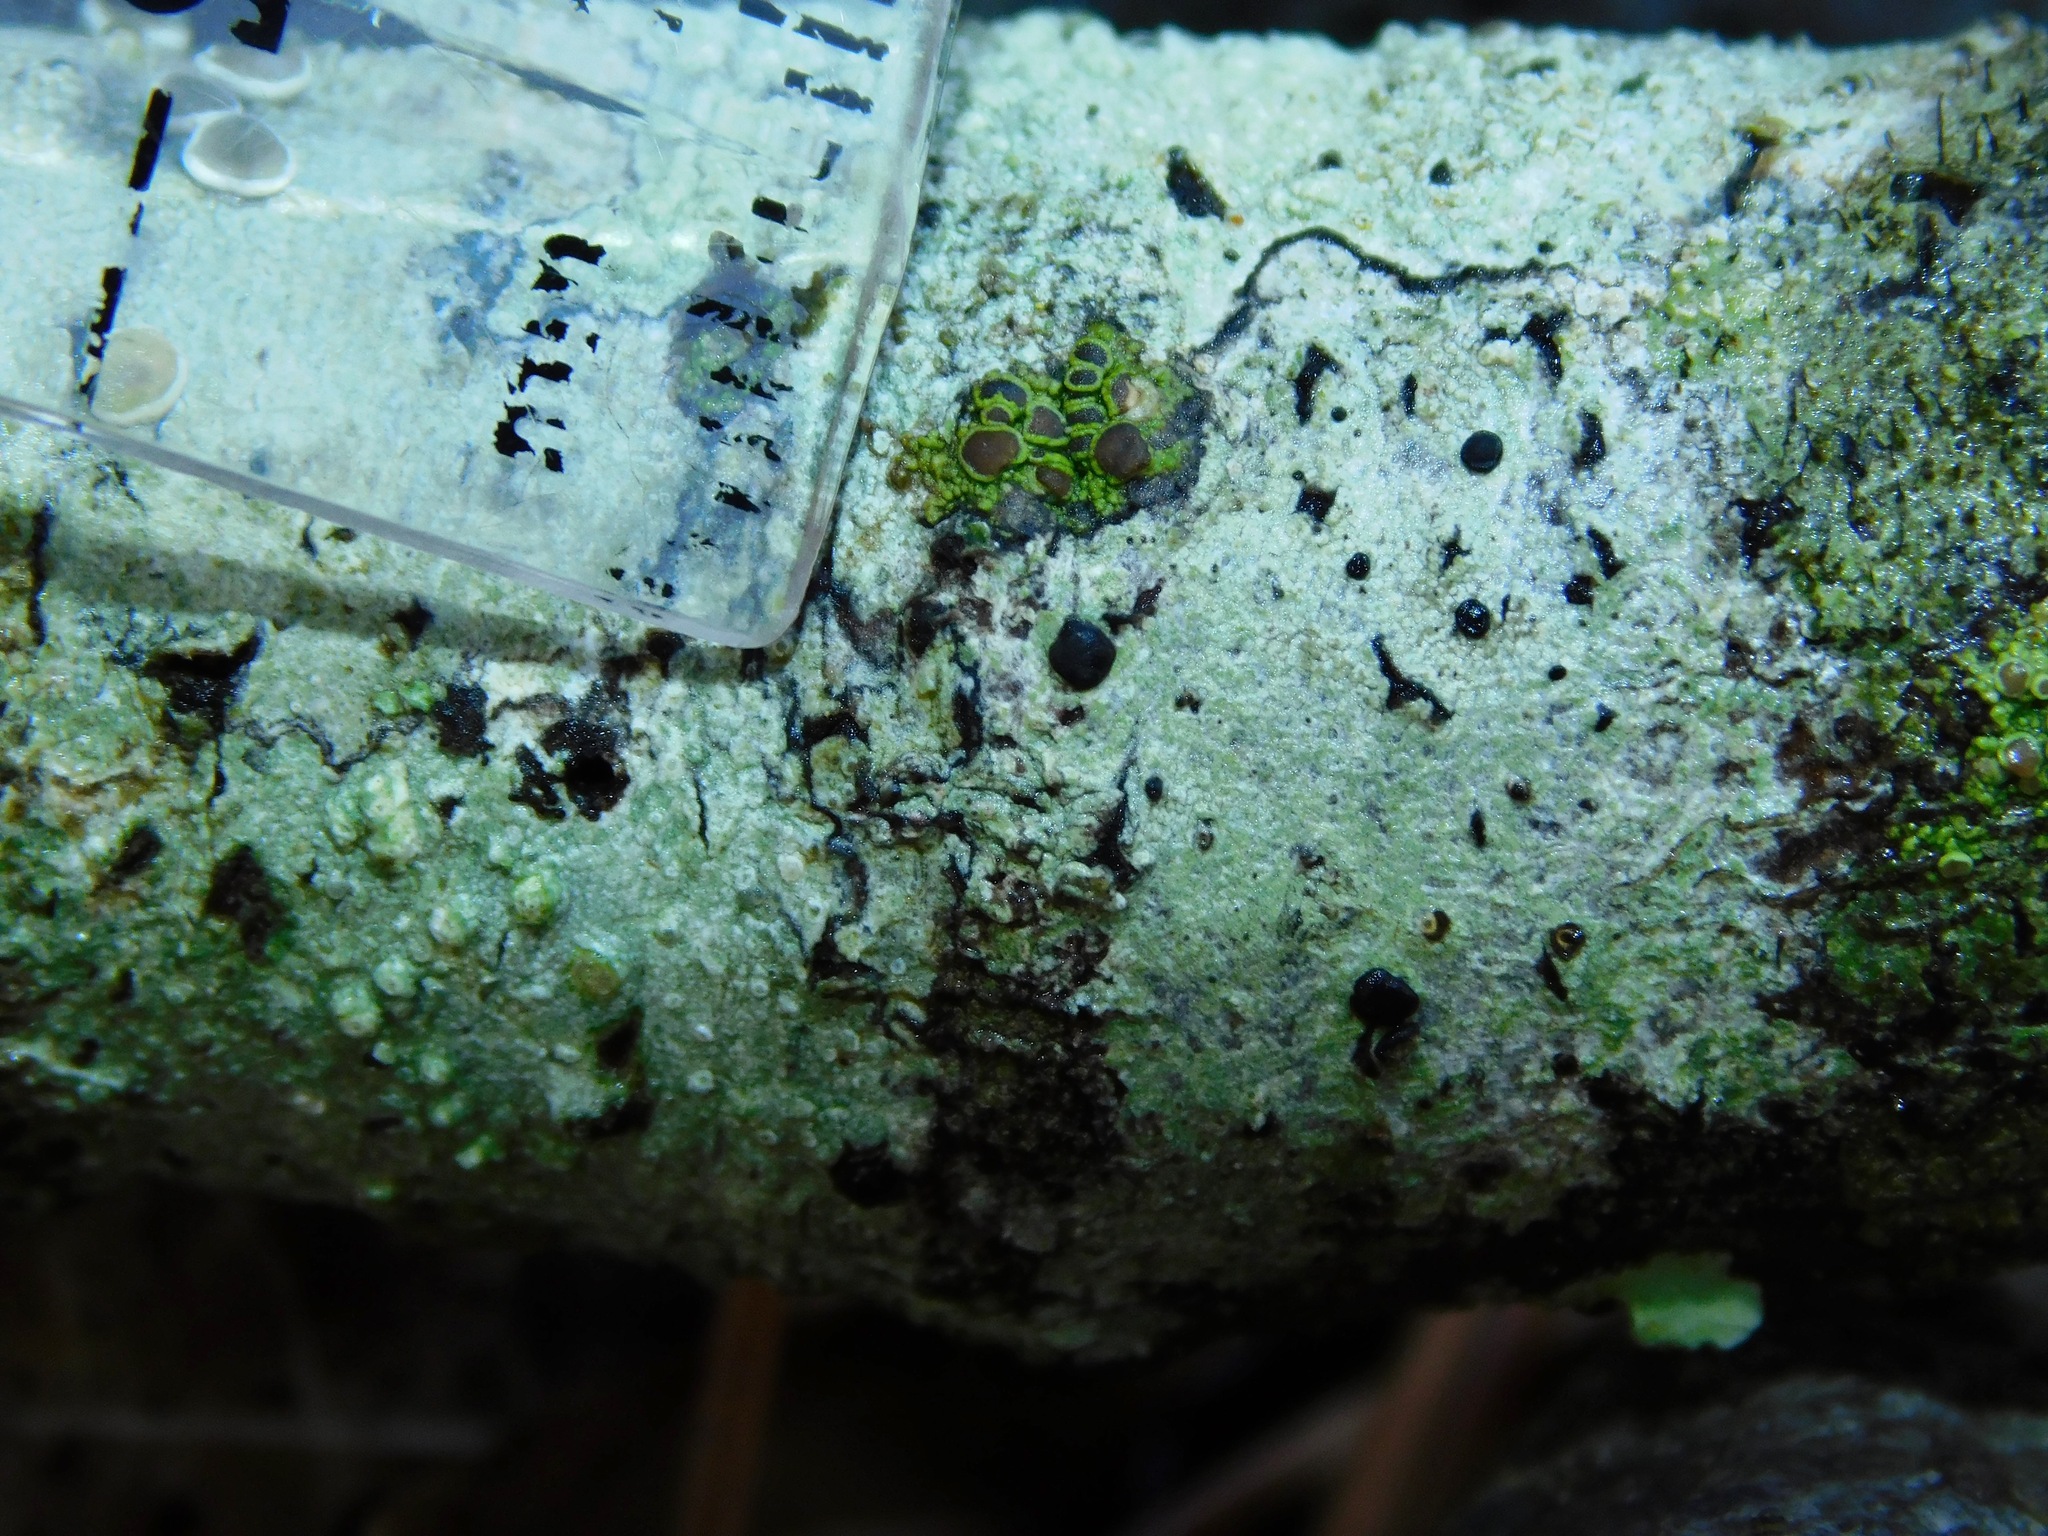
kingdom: Fungi
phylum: Ascomycota
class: Lecanoromycetes
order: Umbilicariales
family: Fuscideaceae
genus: Maronea
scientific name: Maronea polyphaea
